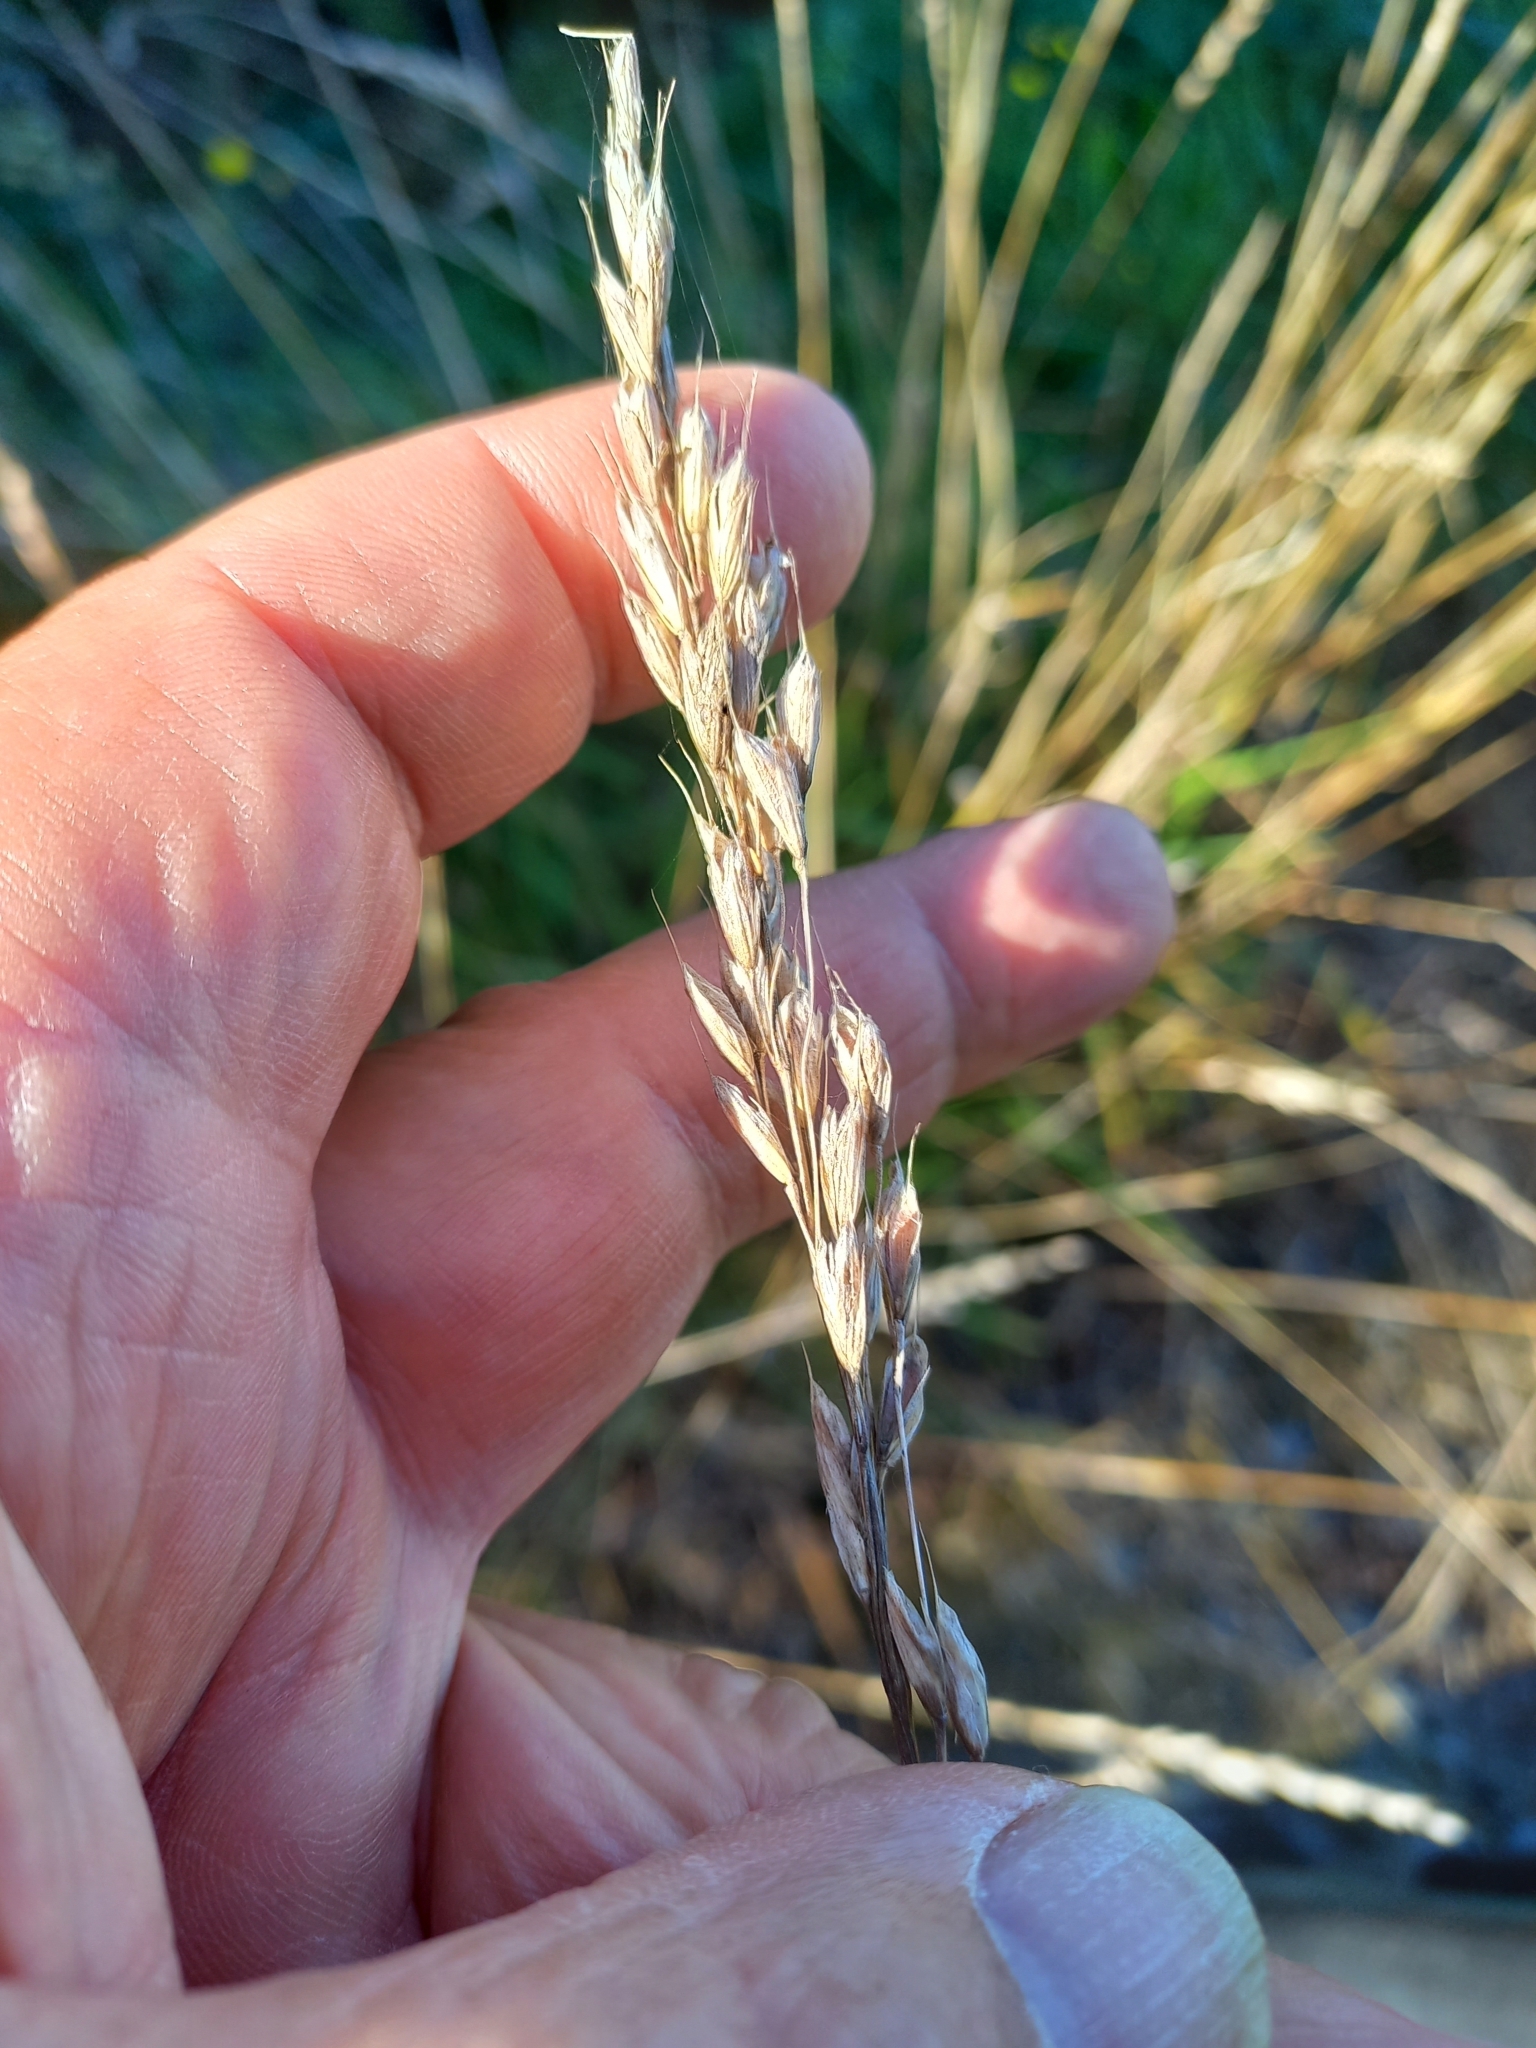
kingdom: Plantae
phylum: Tracheophyta
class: Liliopsida
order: Poales
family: Poaceae
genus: Bromus
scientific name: Bromus hordeaceus
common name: Soft brome
